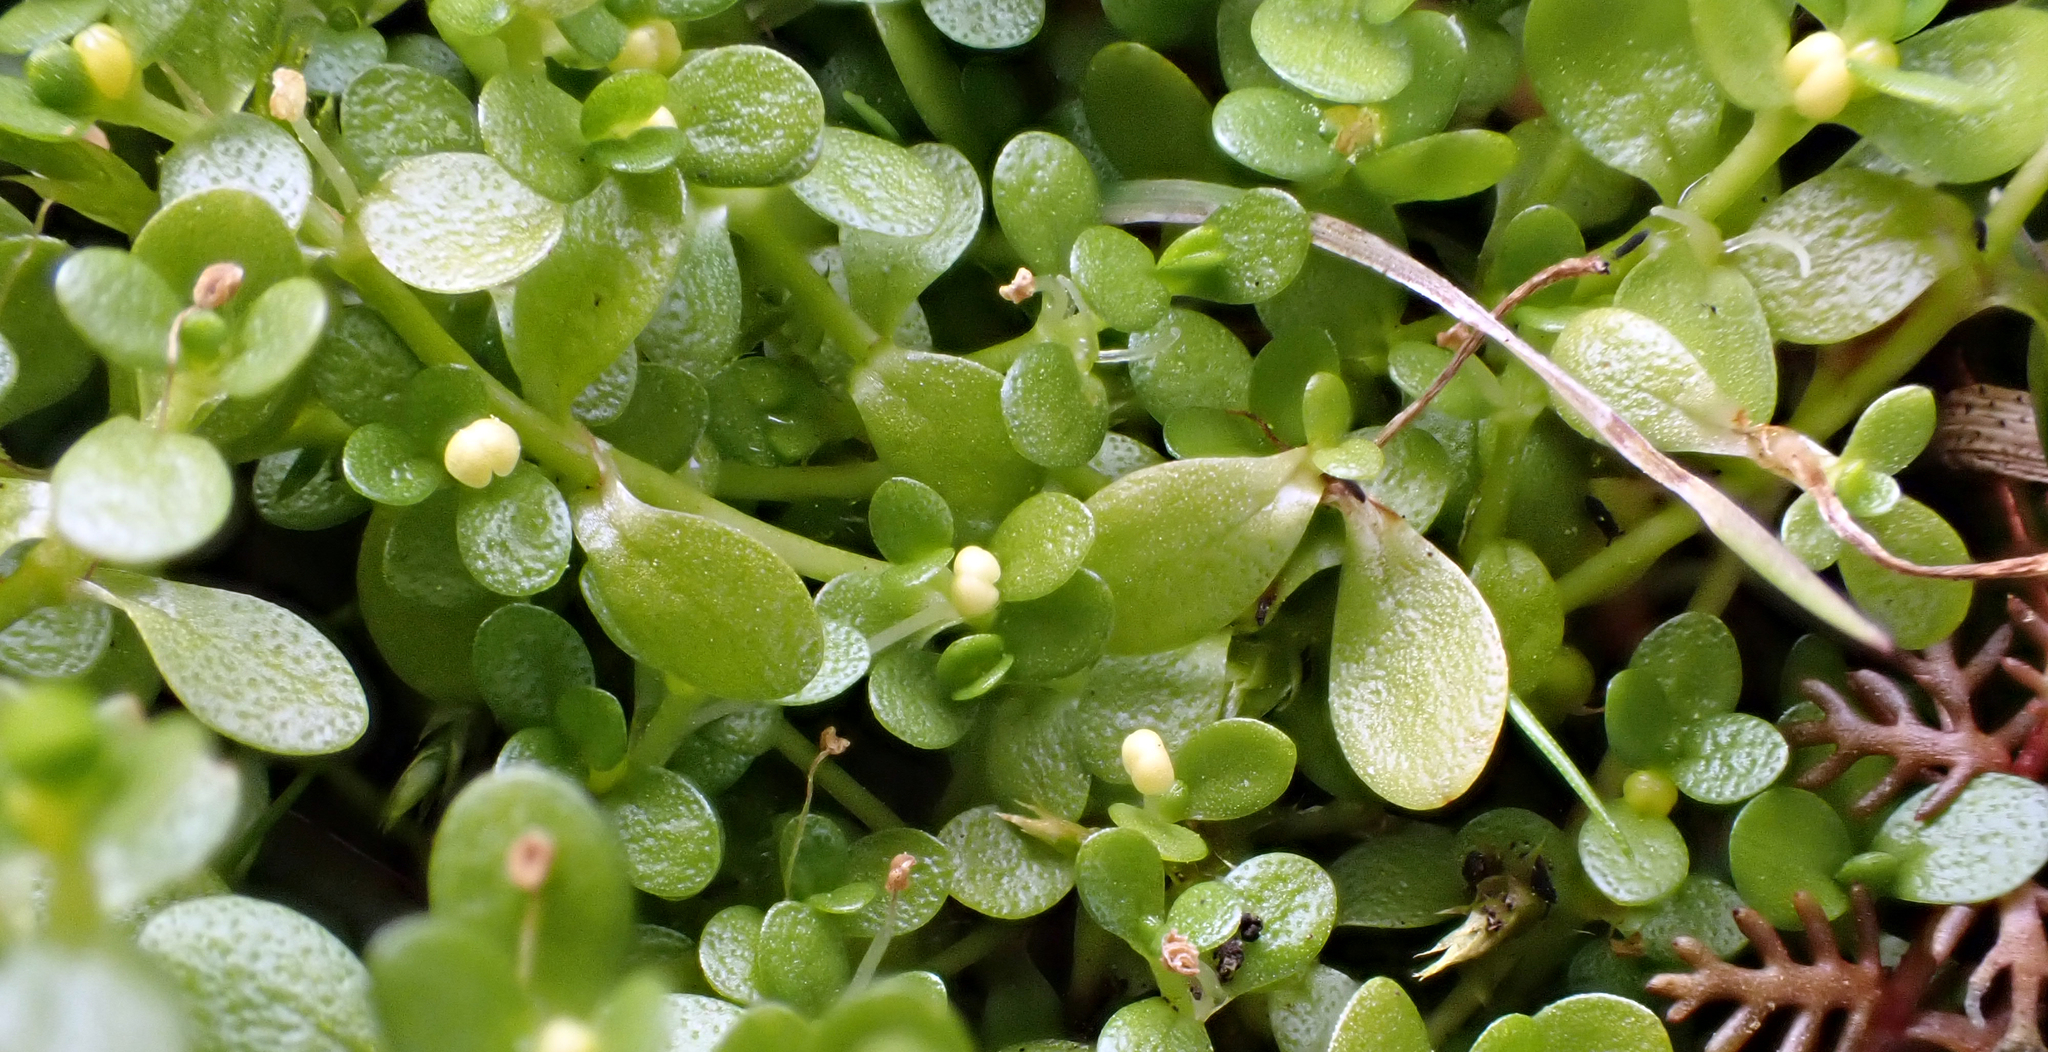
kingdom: Plantae
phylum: Tracheophyta
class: Magnoliopsida
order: Lamiales
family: Plantaginaceae
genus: Callitriche
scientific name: Callitriche chathamensis
